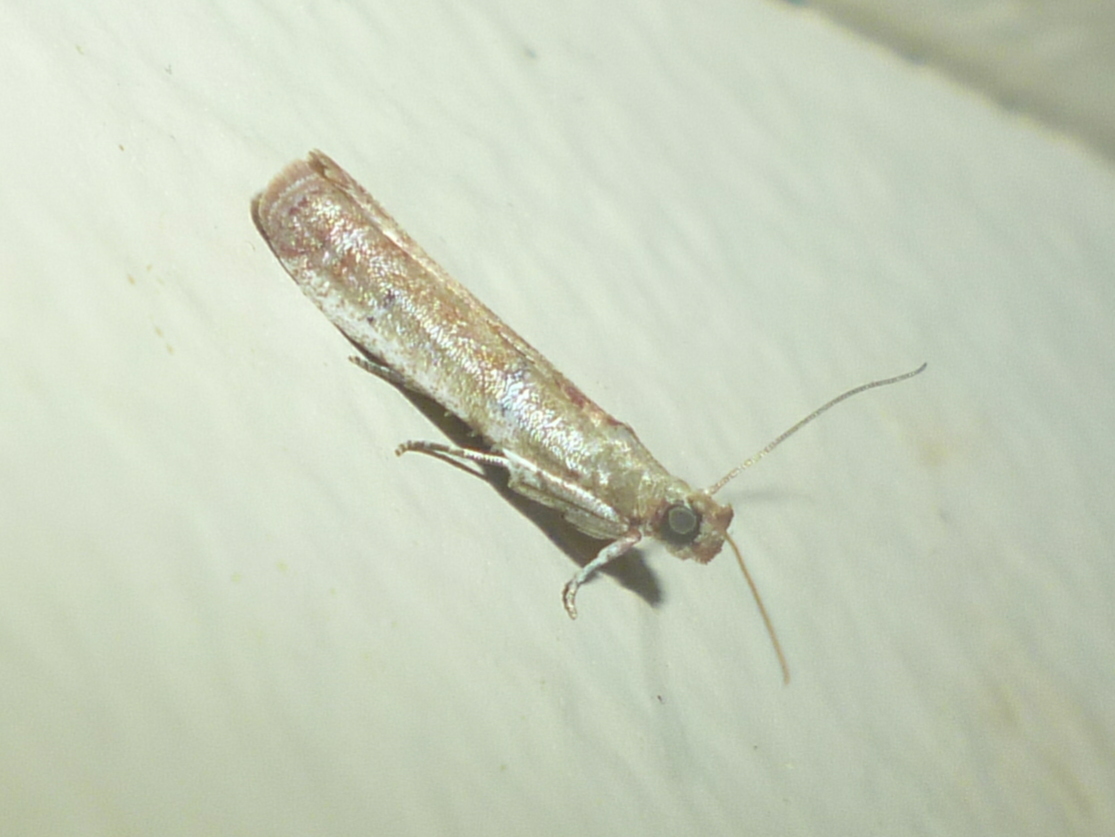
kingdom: Animalia
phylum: Arthropoda
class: Insecta
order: Lepidoptera
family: Pyralidae
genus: Atheloca
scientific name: Atheloca subrufella
